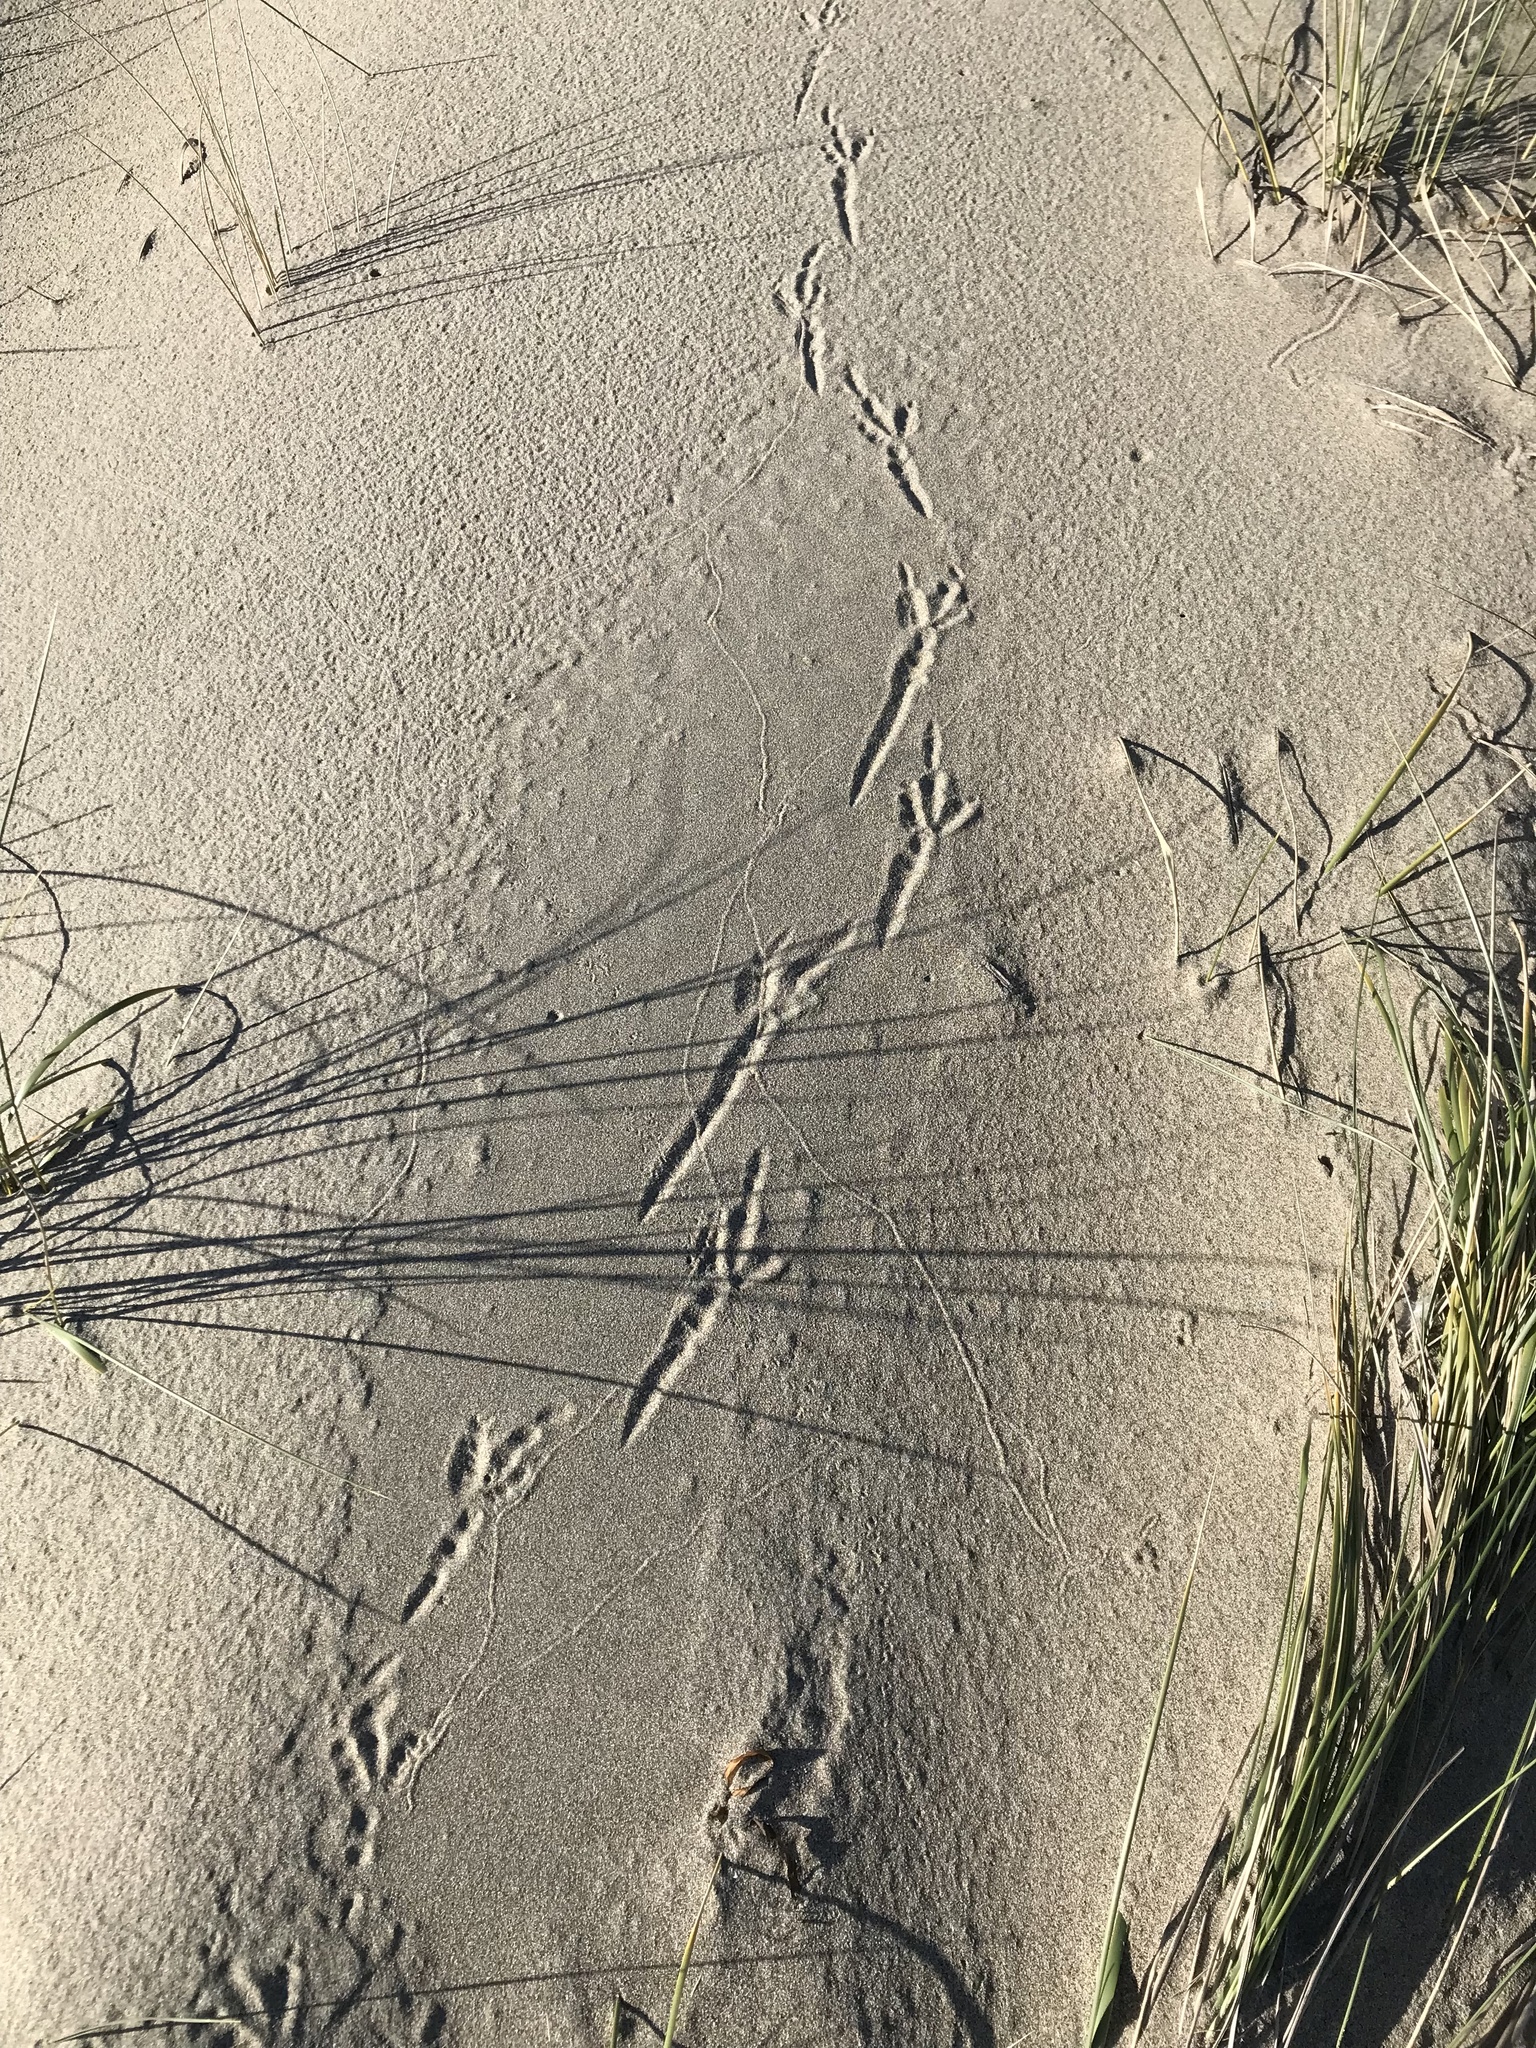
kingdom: Animalia
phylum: Chordata
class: Aves
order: Passeriformes
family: Corvidae
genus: Corvus
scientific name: Corvus corax
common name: Common raven
